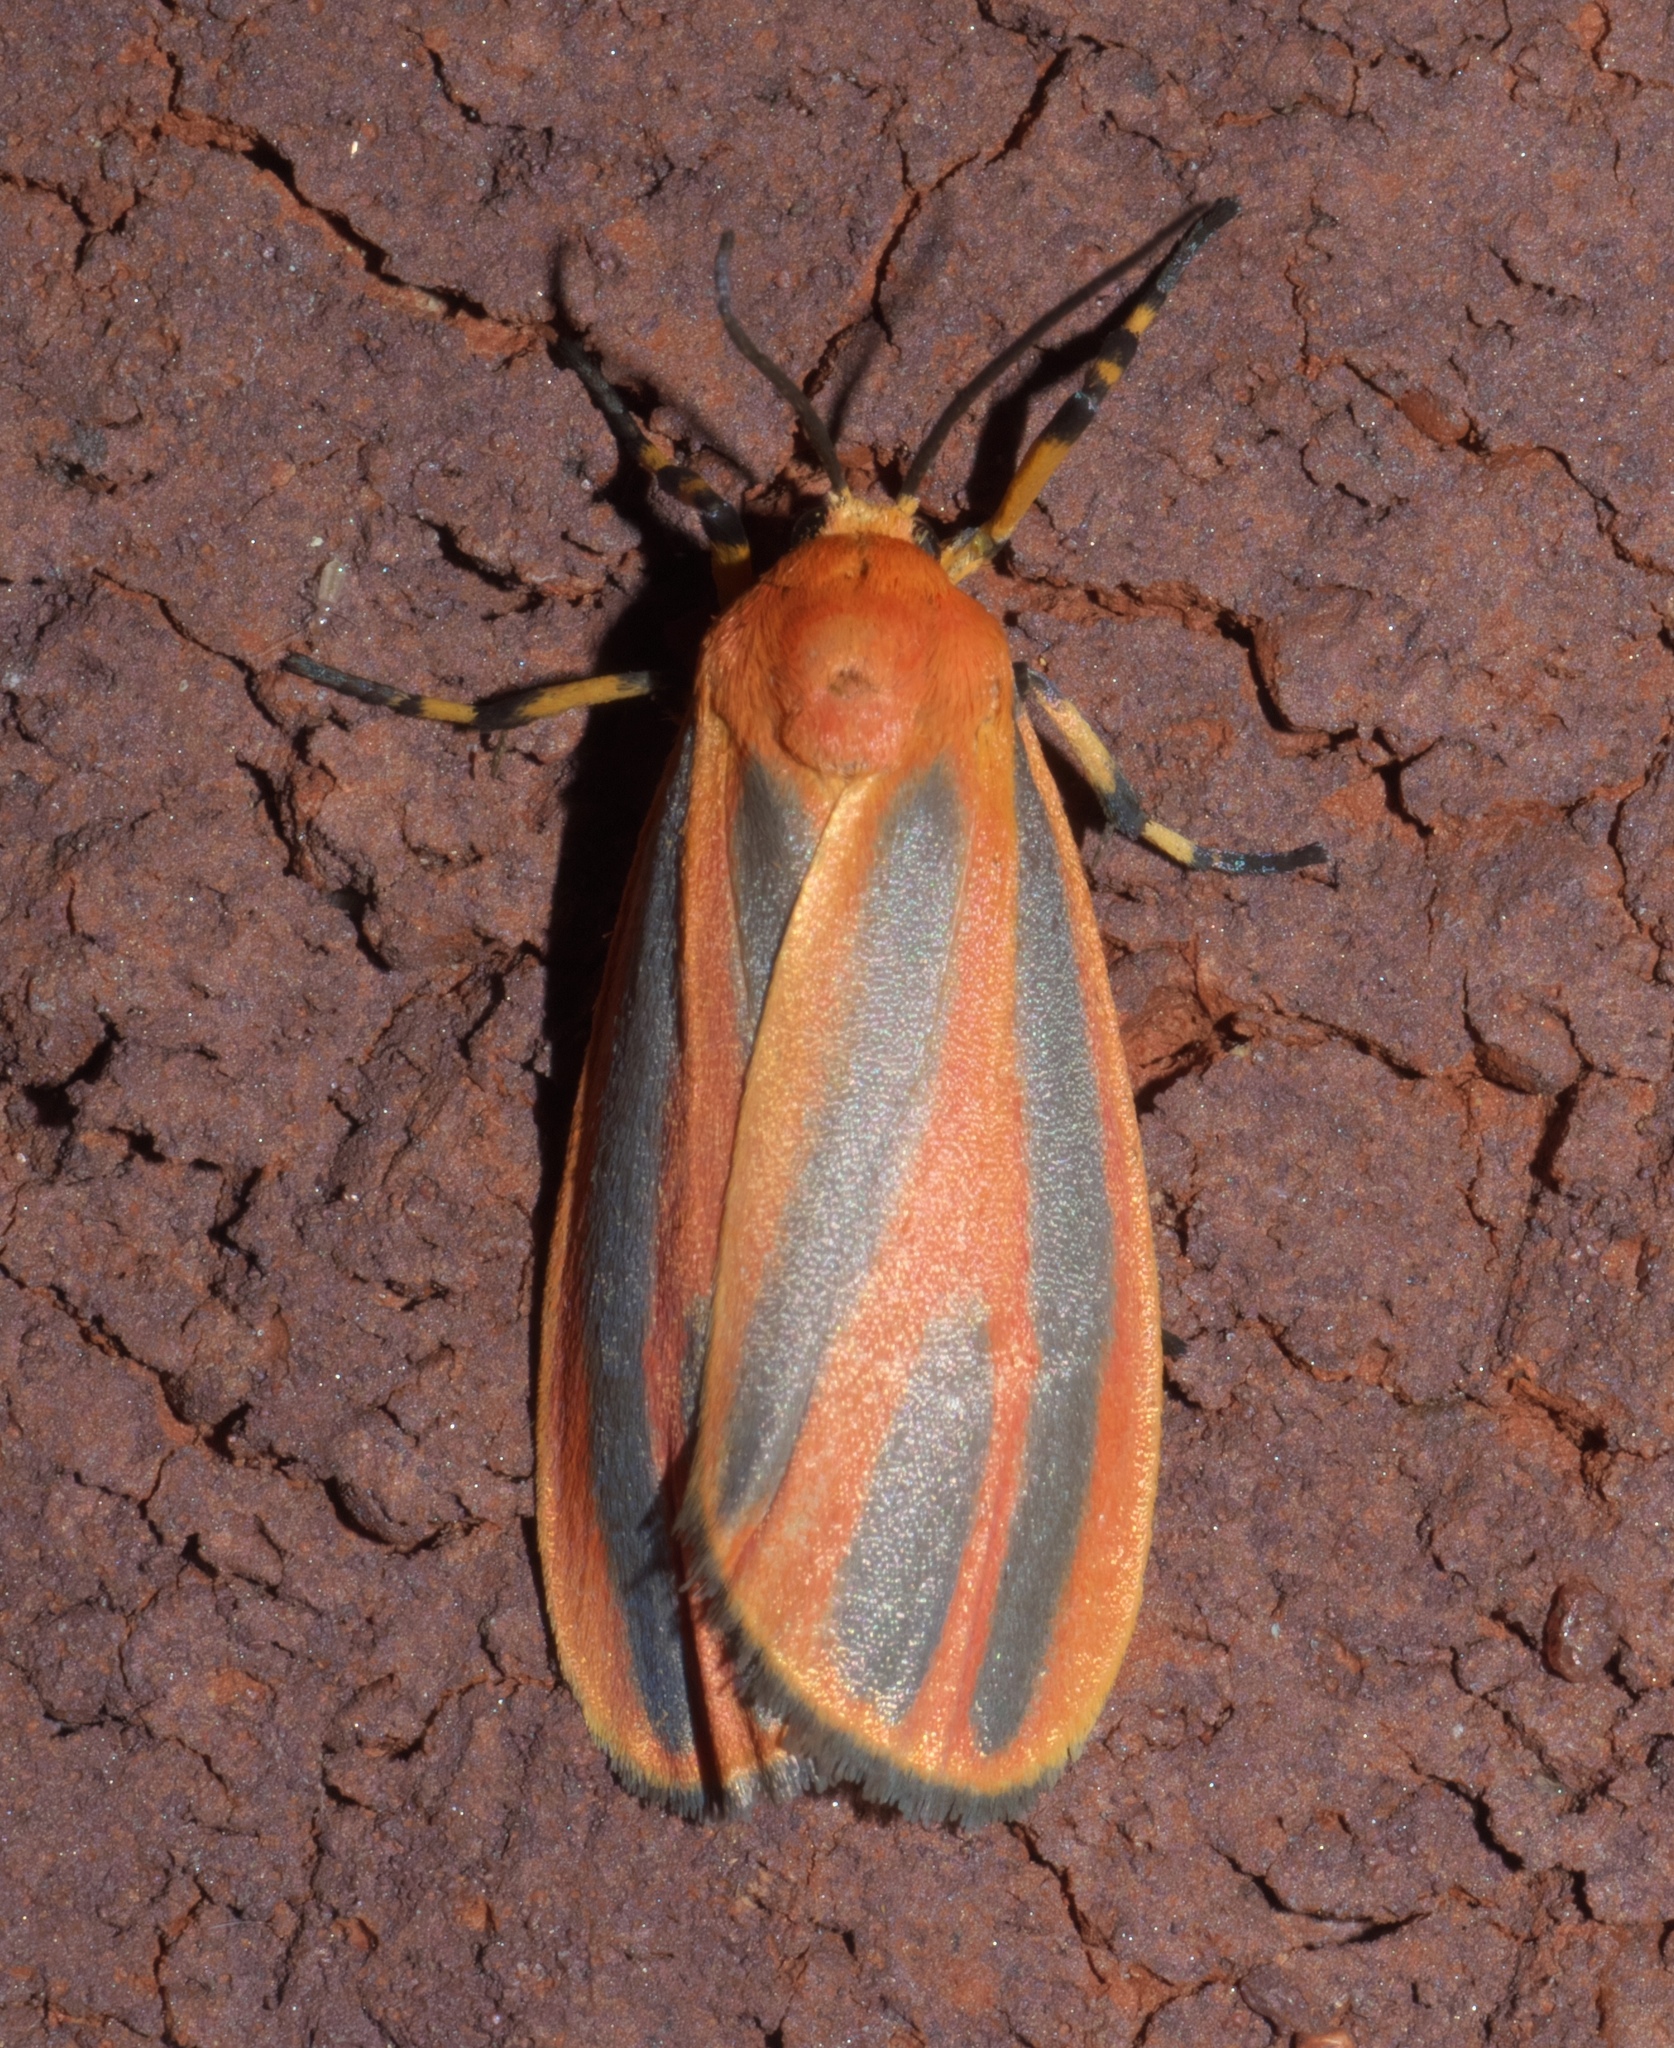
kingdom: Animalia
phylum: Arthropoda
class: Insecta
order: Lepidoptera
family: Erebidae
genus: Hypoprepia
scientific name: Hypoprepia
